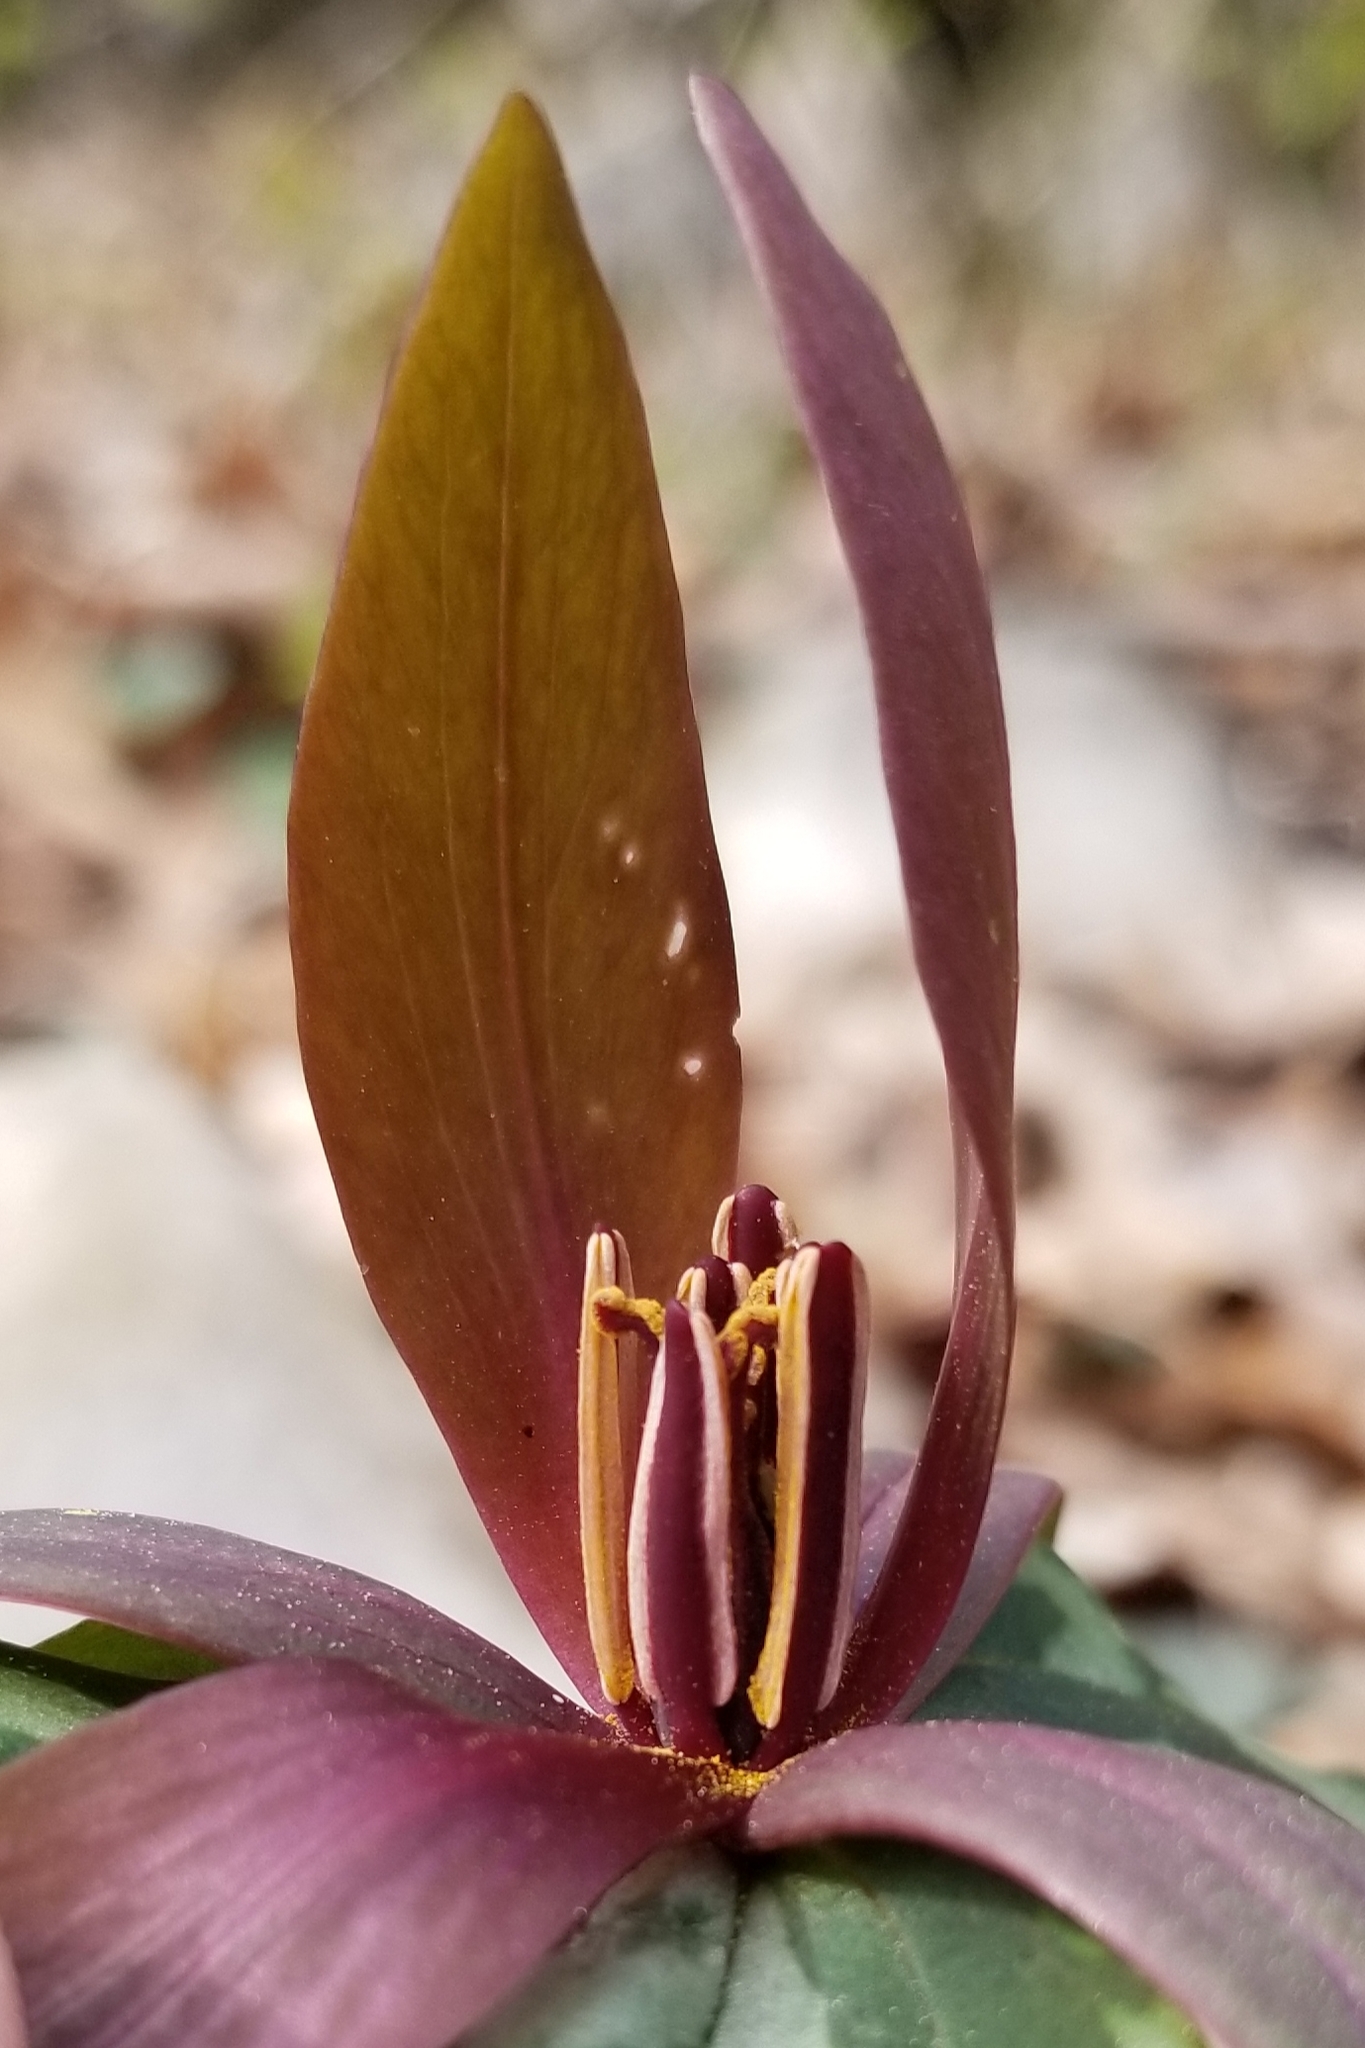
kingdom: Plantae
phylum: Tracheophyta
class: Liliopsida
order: Liliales
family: Melanthiaceae
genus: Trillium
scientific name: Trillium cuneatum
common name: Cuneate trillium
